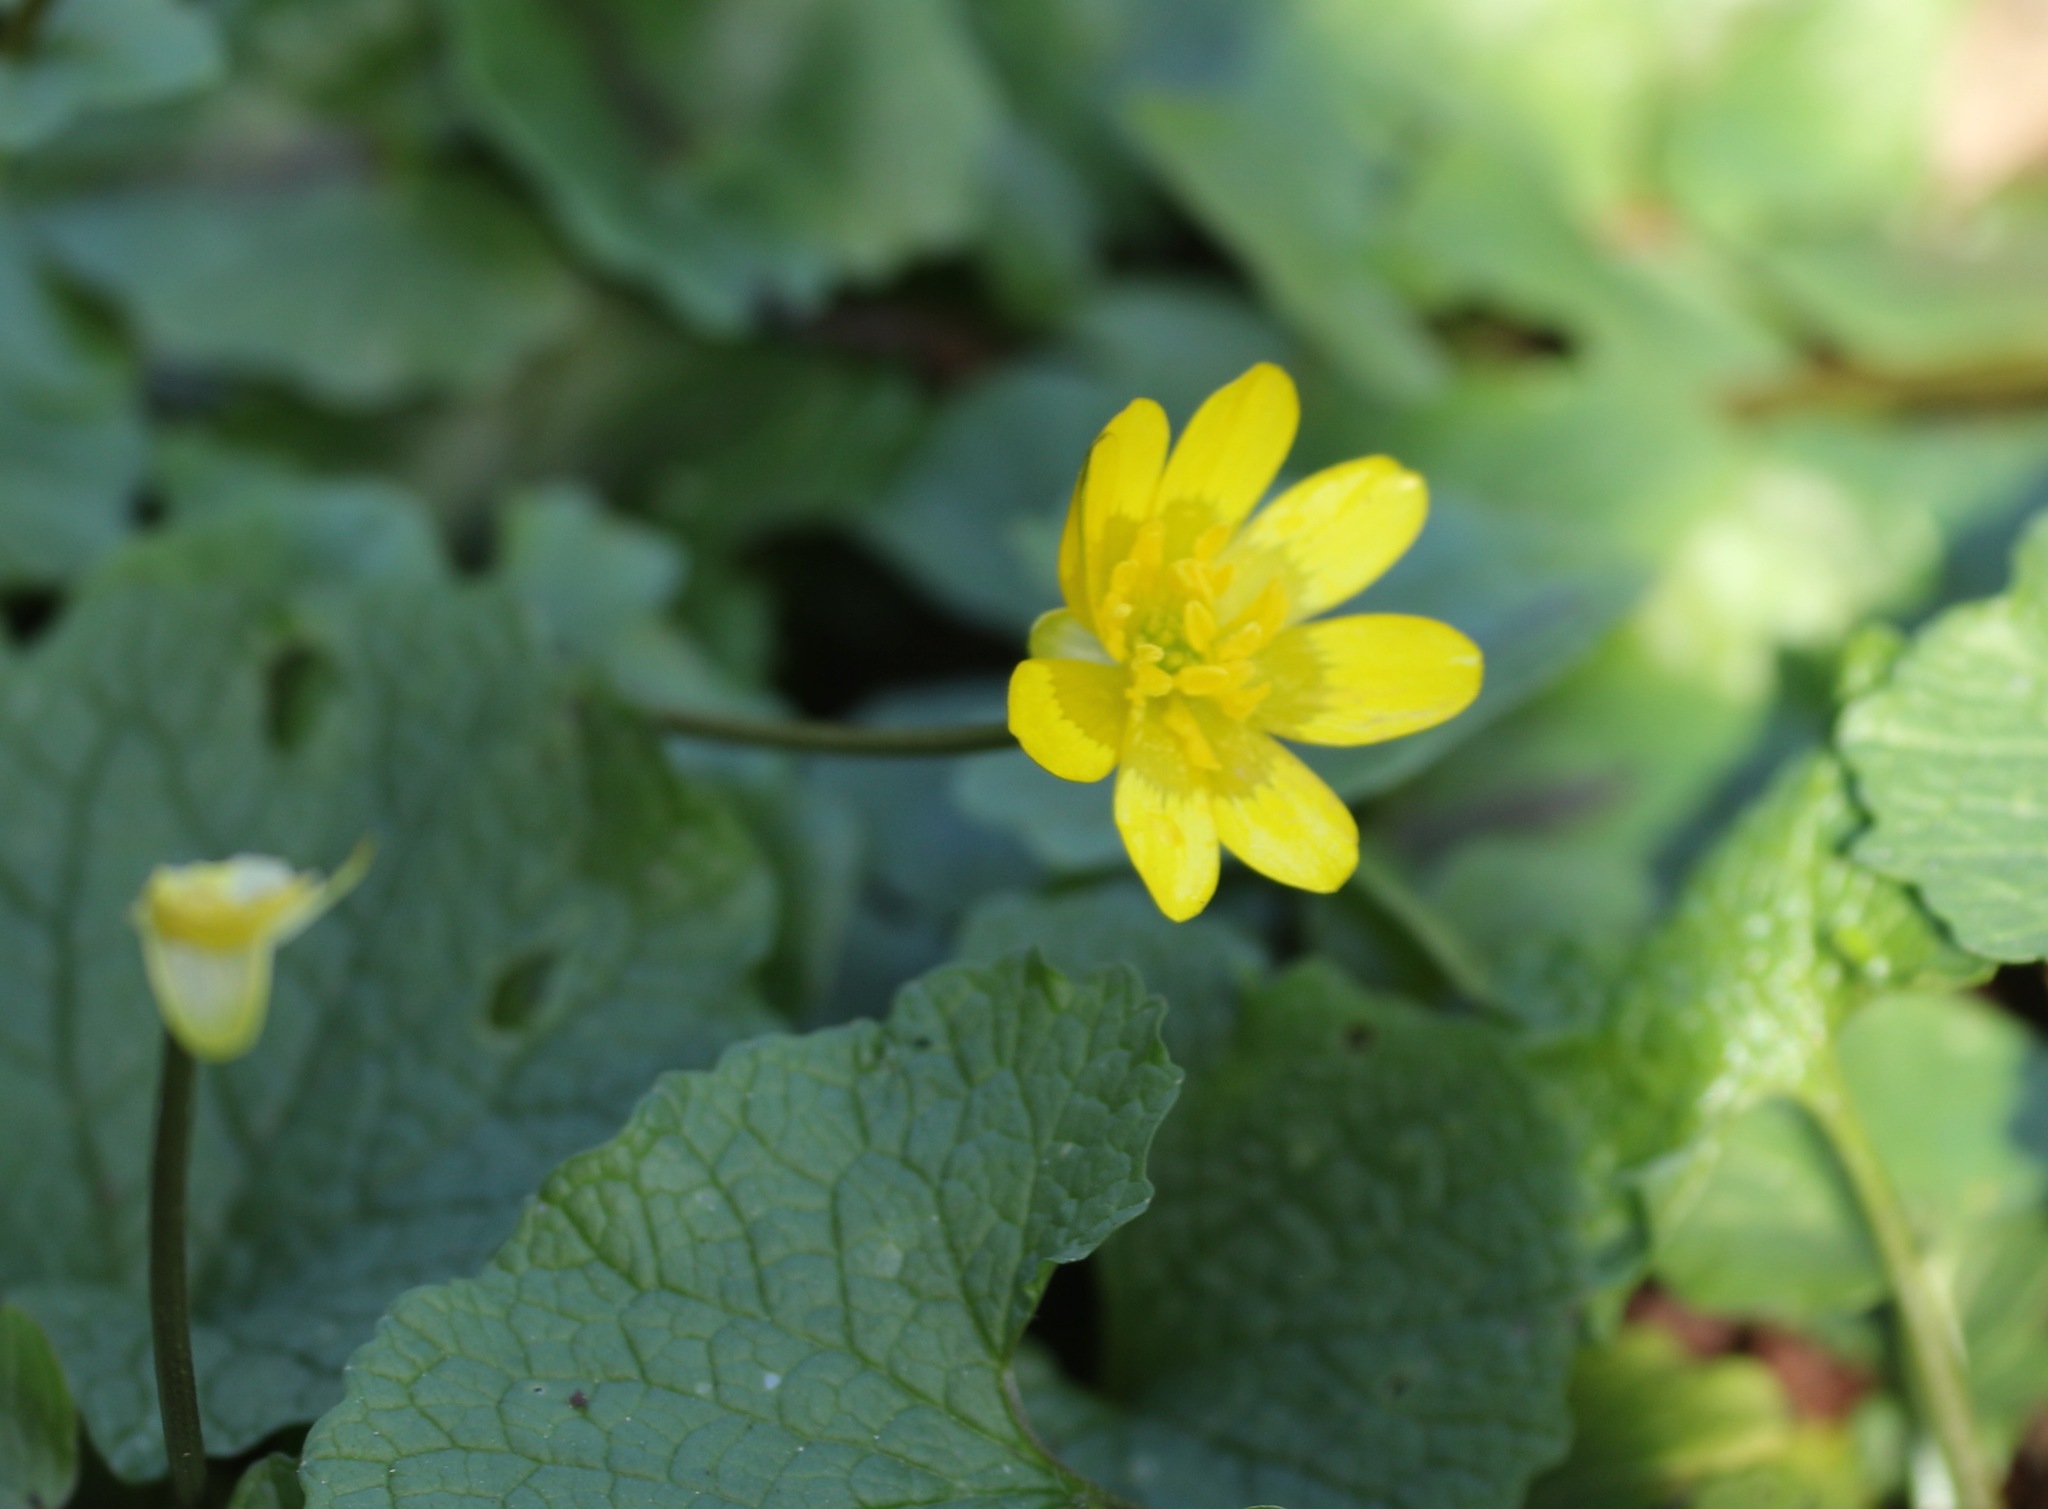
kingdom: Plantae
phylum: Tracheophyta
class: Magnoliopsida
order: Ranunculales
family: Ranunculaceae
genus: Ficaria
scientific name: Ficaria verna
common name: Lesser celandine
